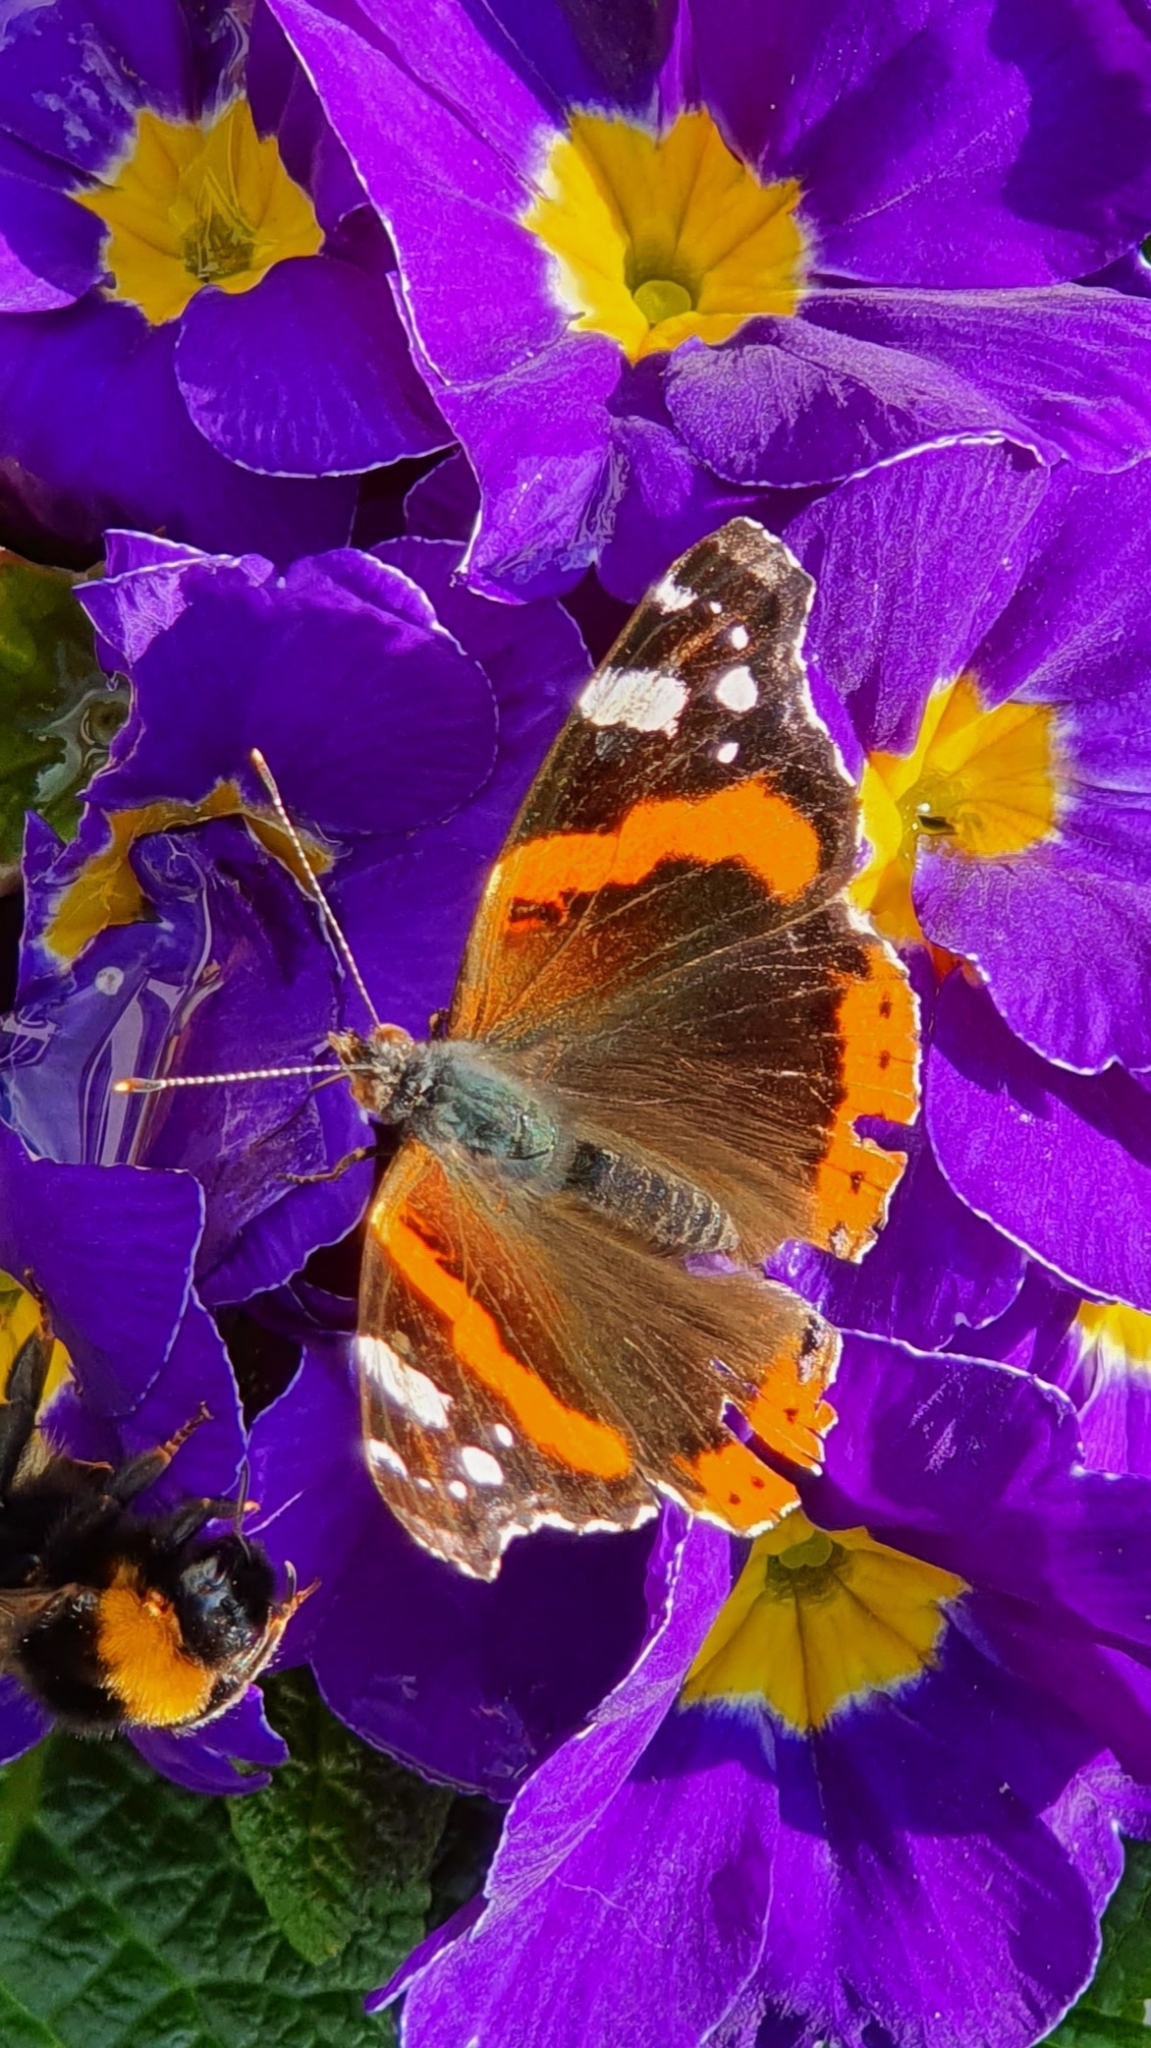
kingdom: Animalia
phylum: Arthropoda
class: Insecta
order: Lepidoptera
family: Nymphalidae
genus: Vanessa
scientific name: Vanessa atalanta
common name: Red admiral
